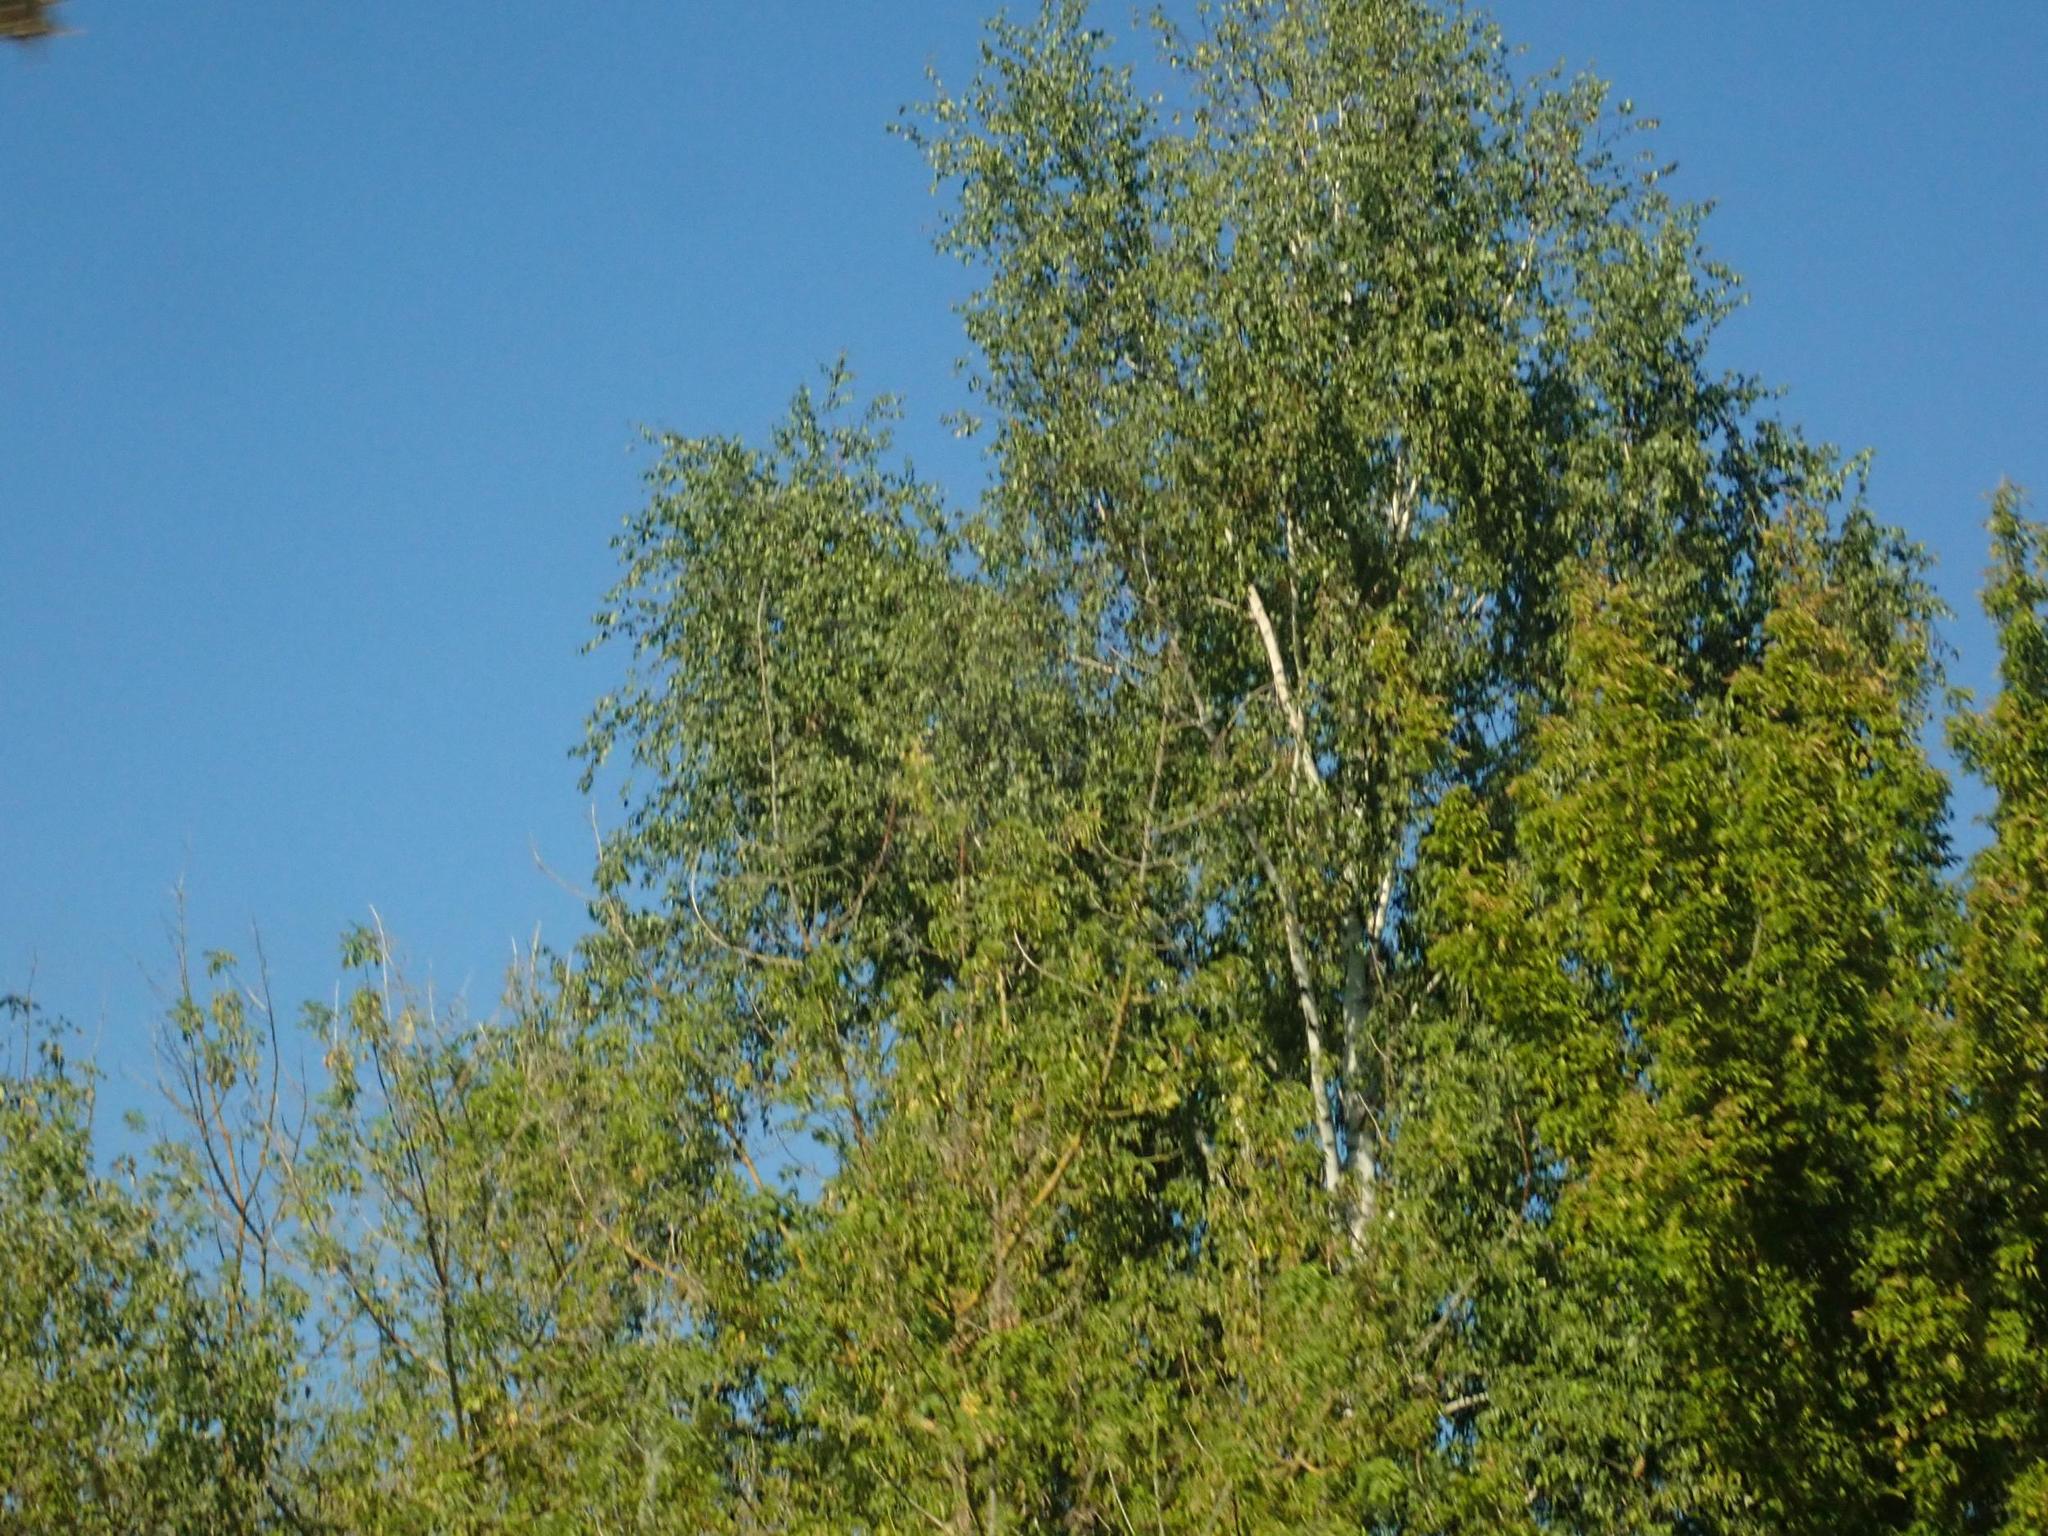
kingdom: Plantae
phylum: Tracheophyta
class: Magnoliopsida
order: Fagales
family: Betulaceae
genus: Betula
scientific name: Betula pendula
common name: Silver birch
